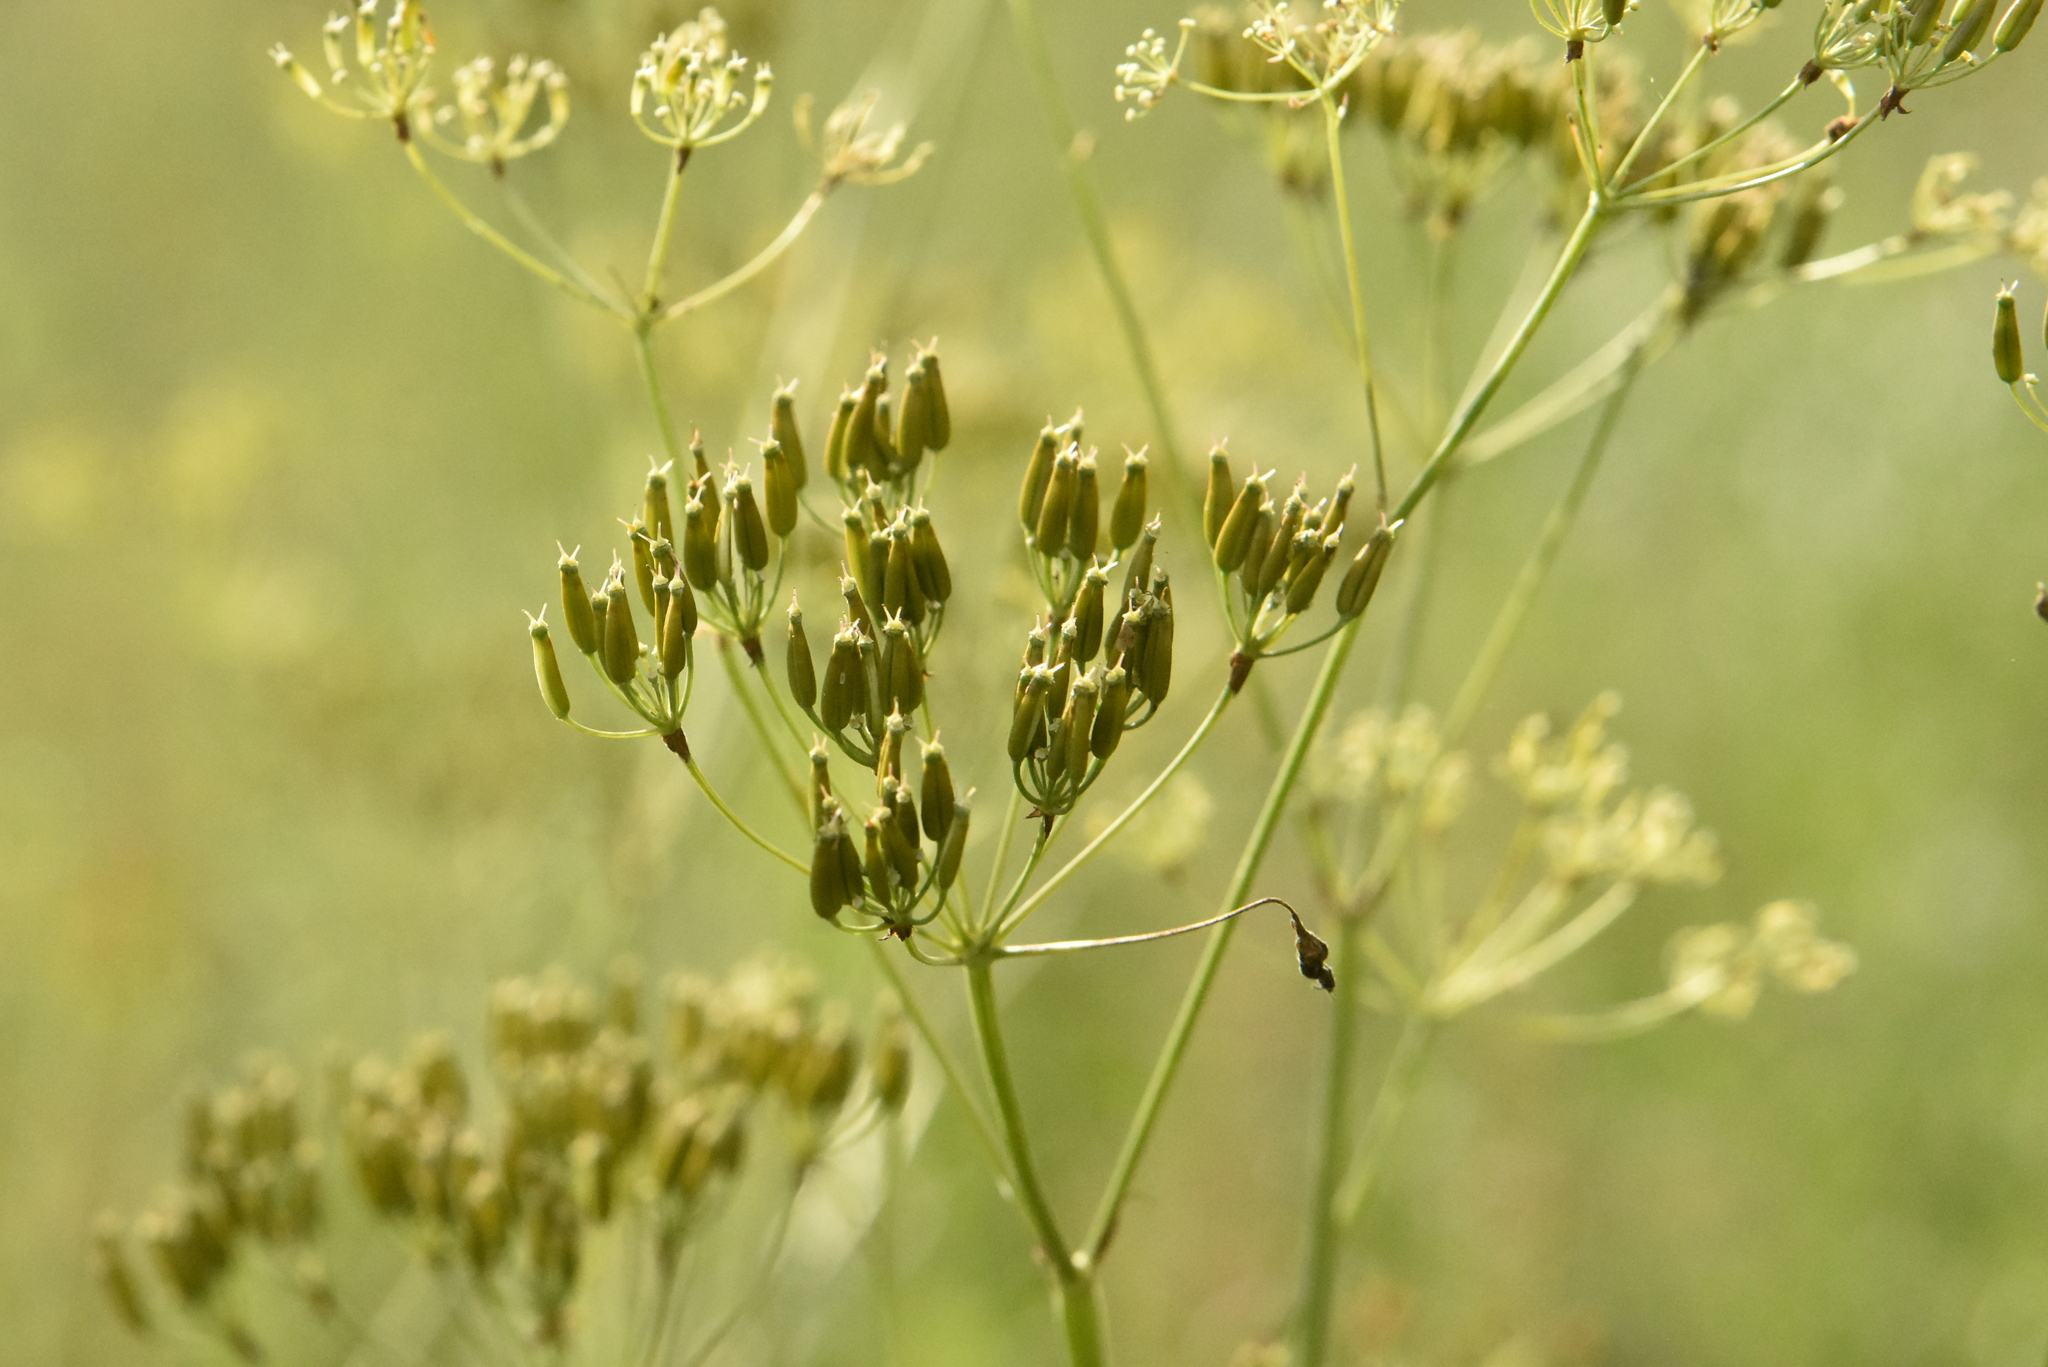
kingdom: Plantae
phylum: Tracheophyta
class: Magnoliopsida
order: Apiales
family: Apiaceae
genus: Anthriscus
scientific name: Anthriscus sylvestris
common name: Cow parsley
